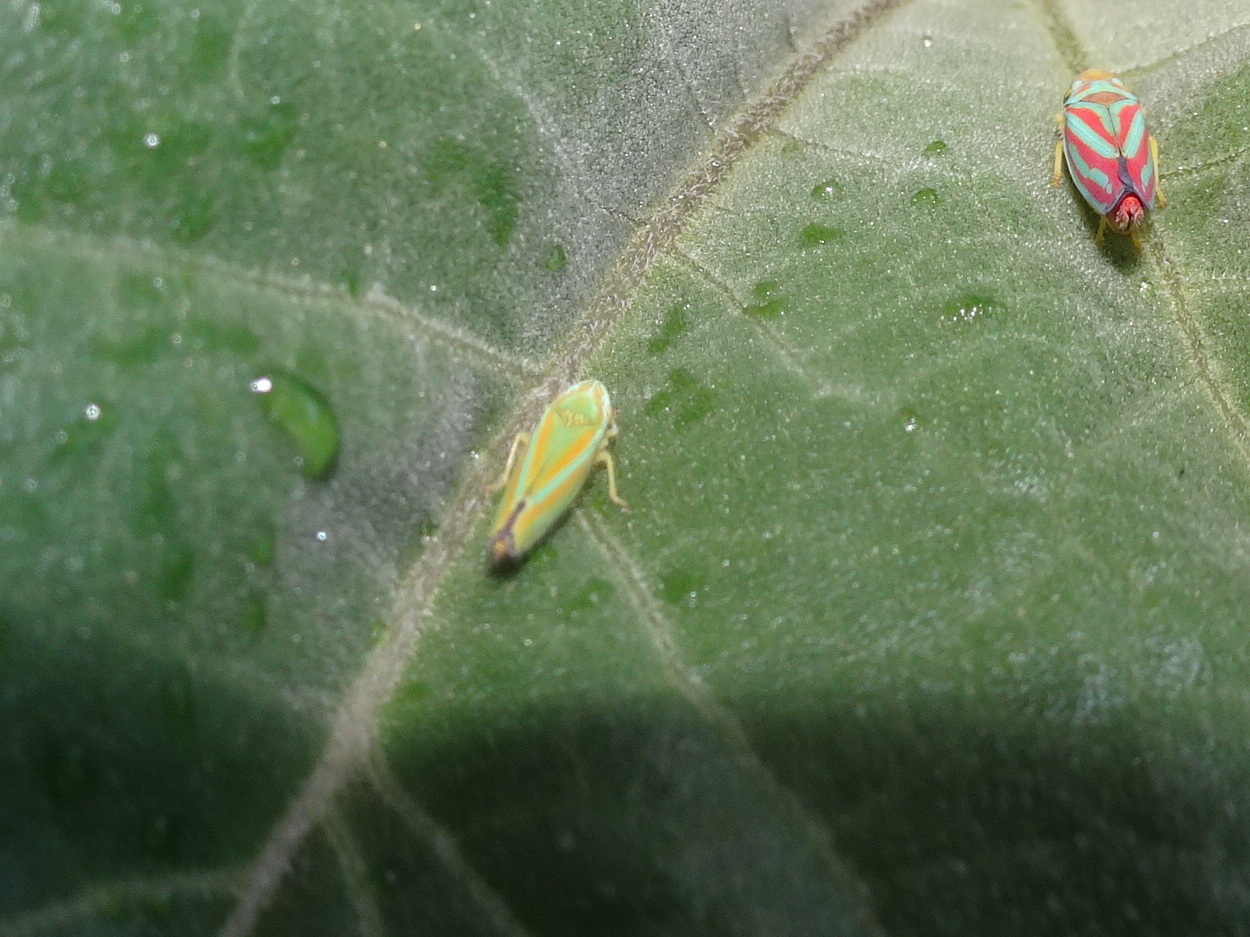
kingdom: Animalia
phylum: Arthropoda
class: Insecta
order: Hemiptera
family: Cicadellidae
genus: Graphocephala
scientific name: Graphocephala versuta
